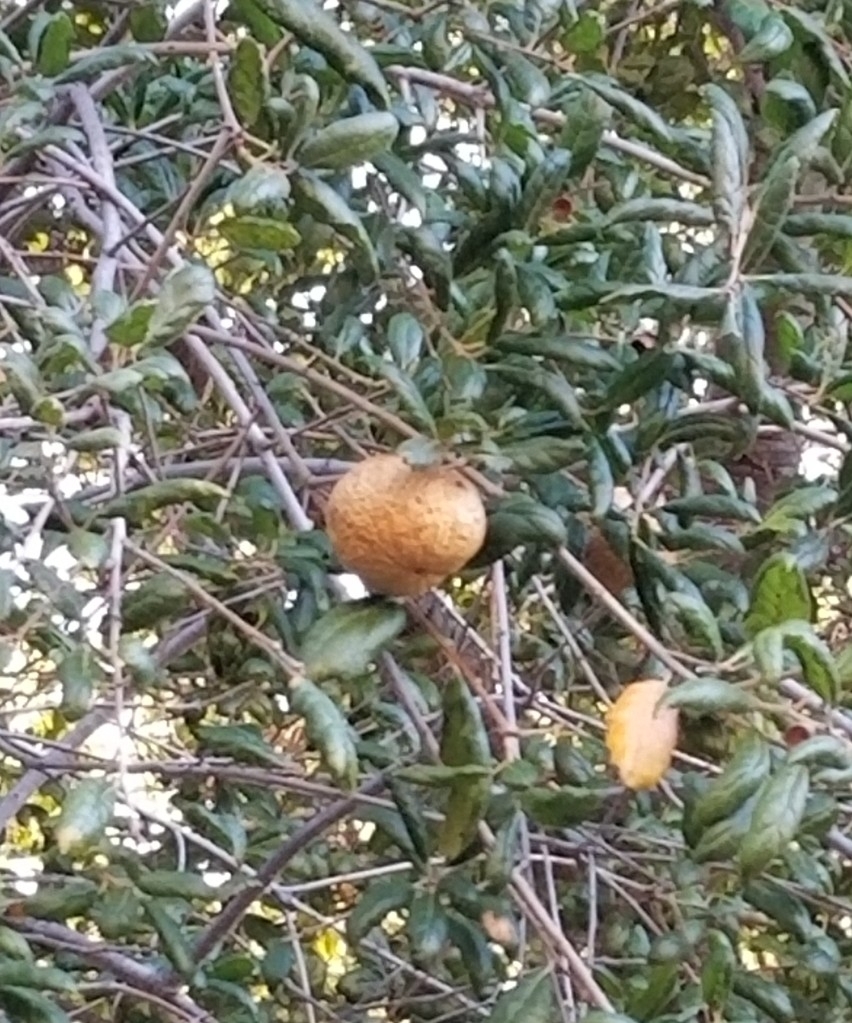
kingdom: Animalia
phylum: Arthropoda
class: Insecta
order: Hymenoptera
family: Cynipidae
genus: Amphibolips
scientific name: Amphibolips quercuspomiformis
